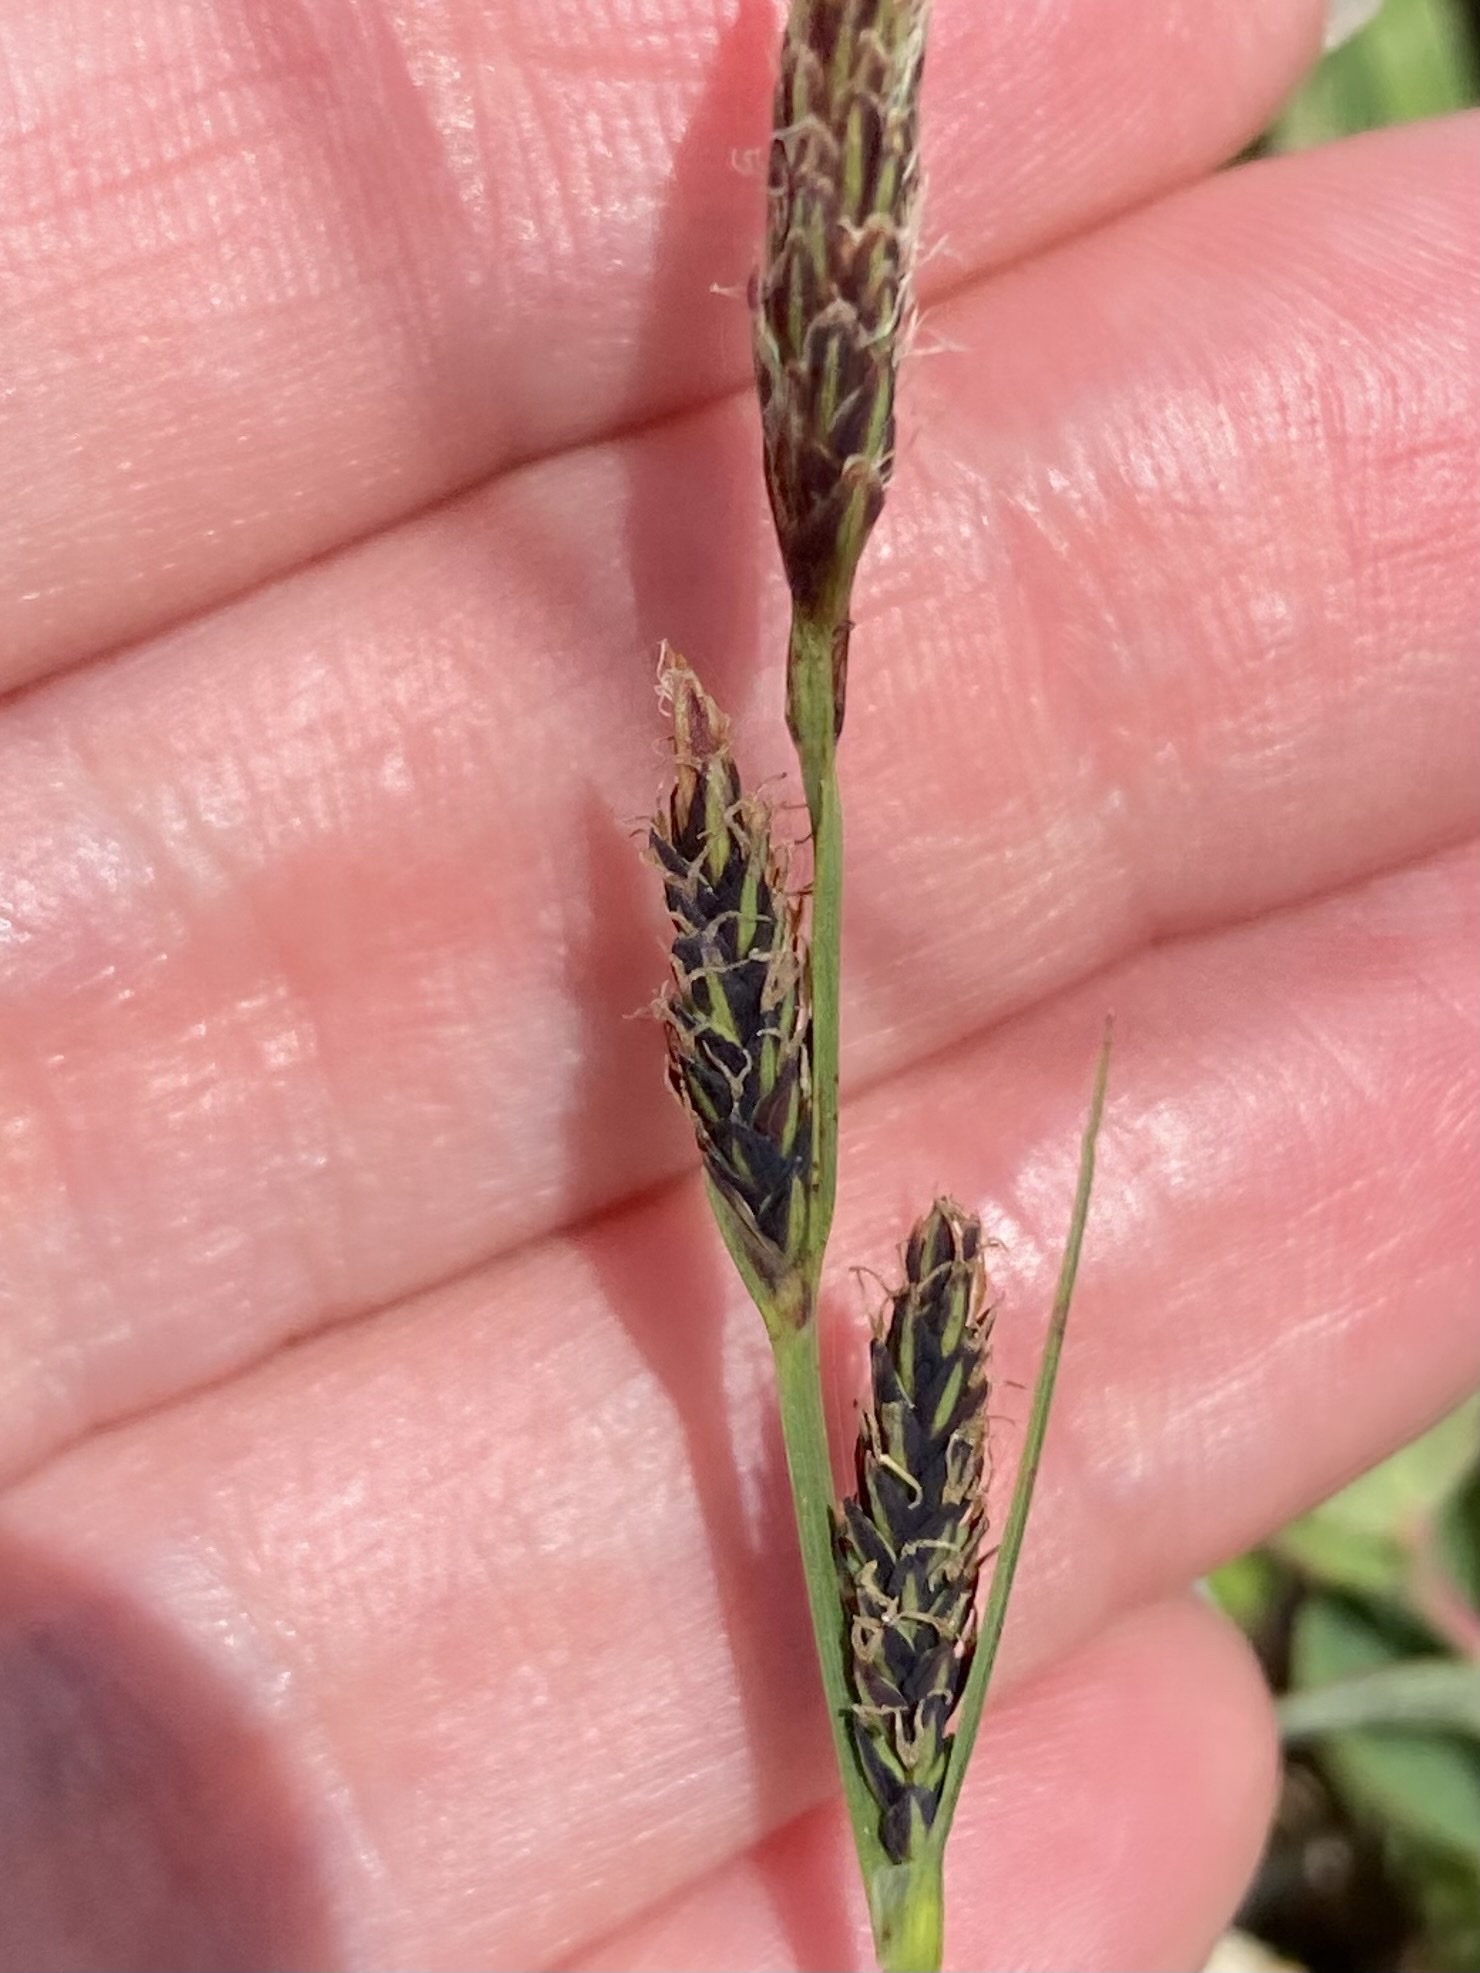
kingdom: Plantae
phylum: Tracheophyta
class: Liliopsida
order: Poales
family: Cyperaceae
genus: Carex
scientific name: Carex bigelowii
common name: Stiff sedge
